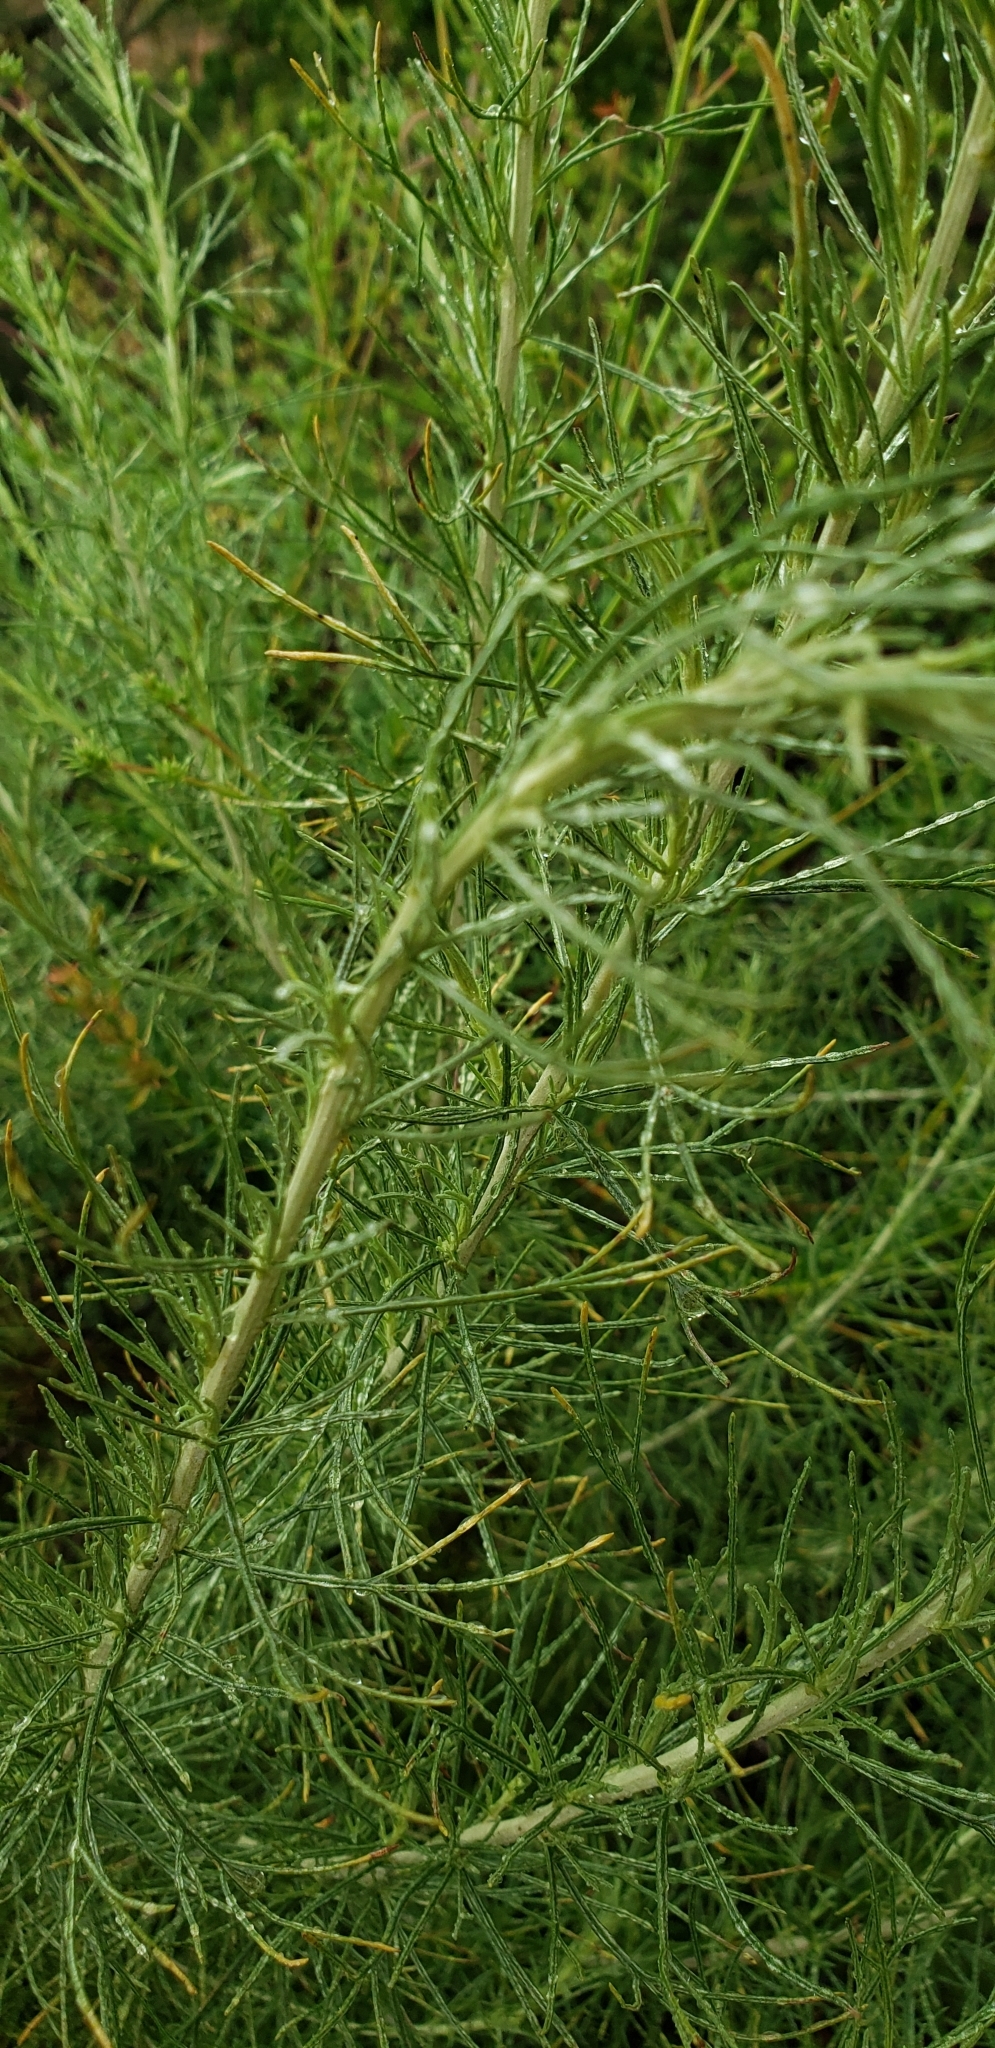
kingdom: Plantae
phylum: Tracheophyta
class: Magnoliopsida
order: Asterales
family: Asteraceae
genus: Artemisia
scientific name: Artemisia californica
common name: California sagebrush
